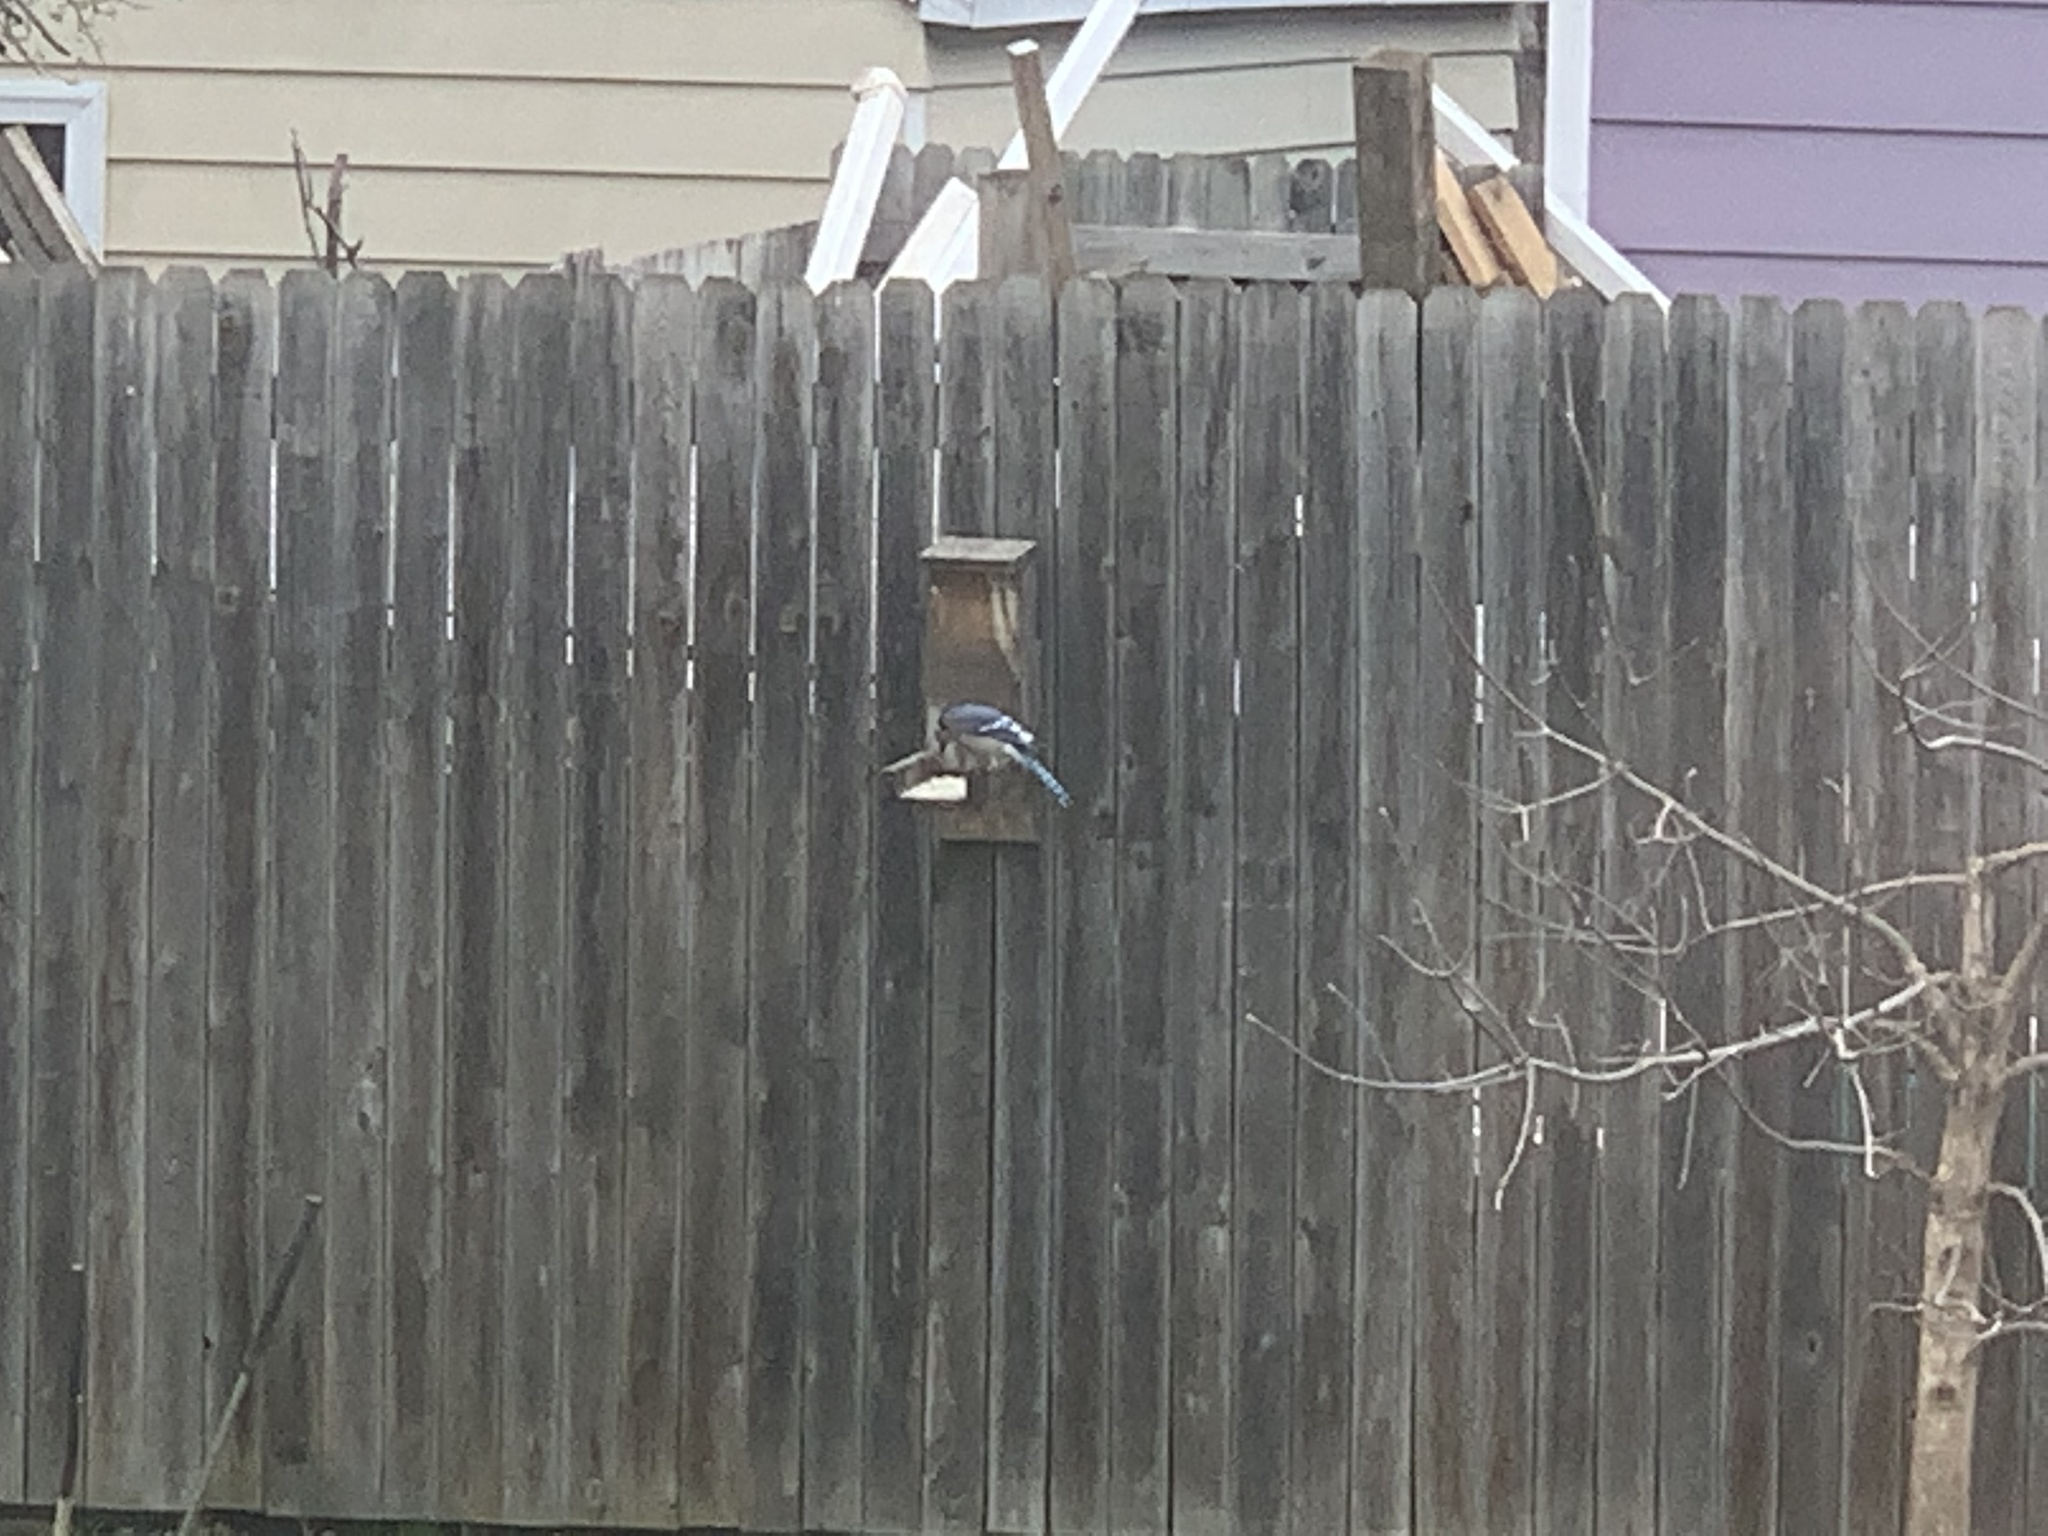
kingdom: Animalia
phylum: Chordata
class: Aves
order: Passeriformes
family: Corvidae
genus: Cyanocitta
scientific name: Cyanocitta cristata
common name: Blue jay
